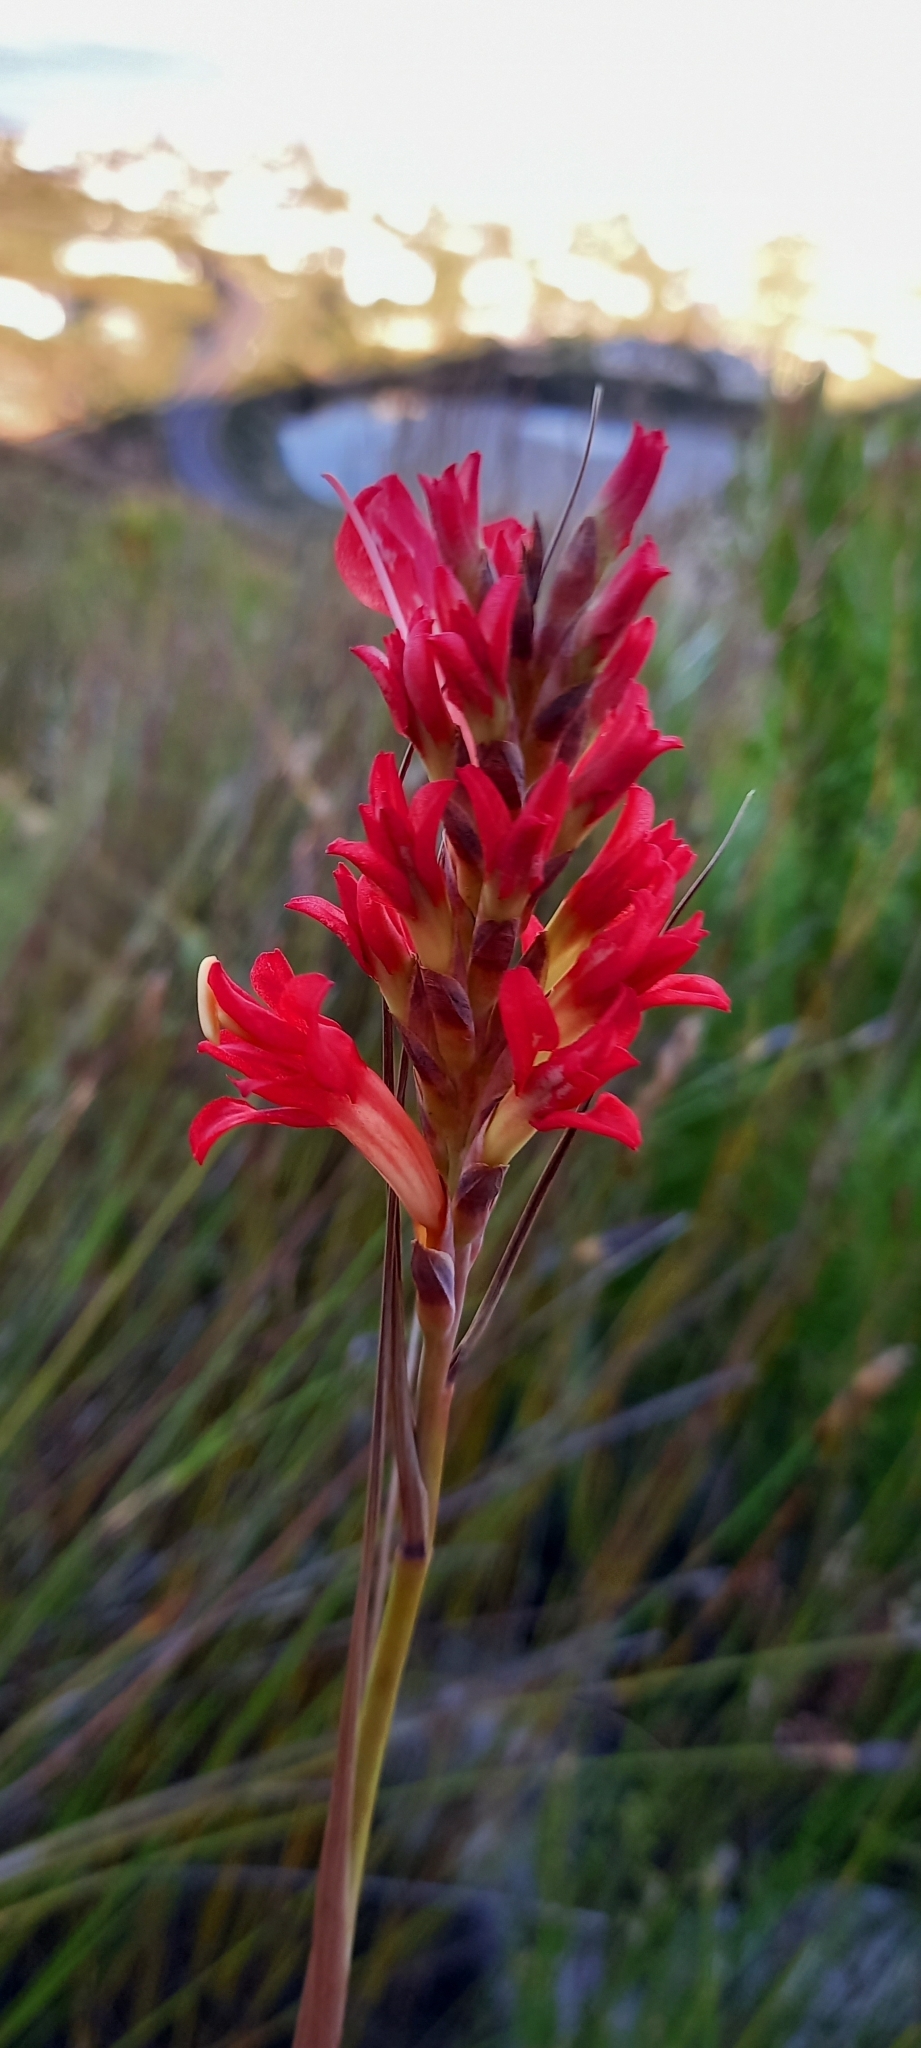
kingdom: Plantae
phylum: Tracheophyta
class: Liliopsida
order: Asparagales
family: Iridaceae
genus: Tritoniopsis
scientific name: Tritoniopsis triticea
